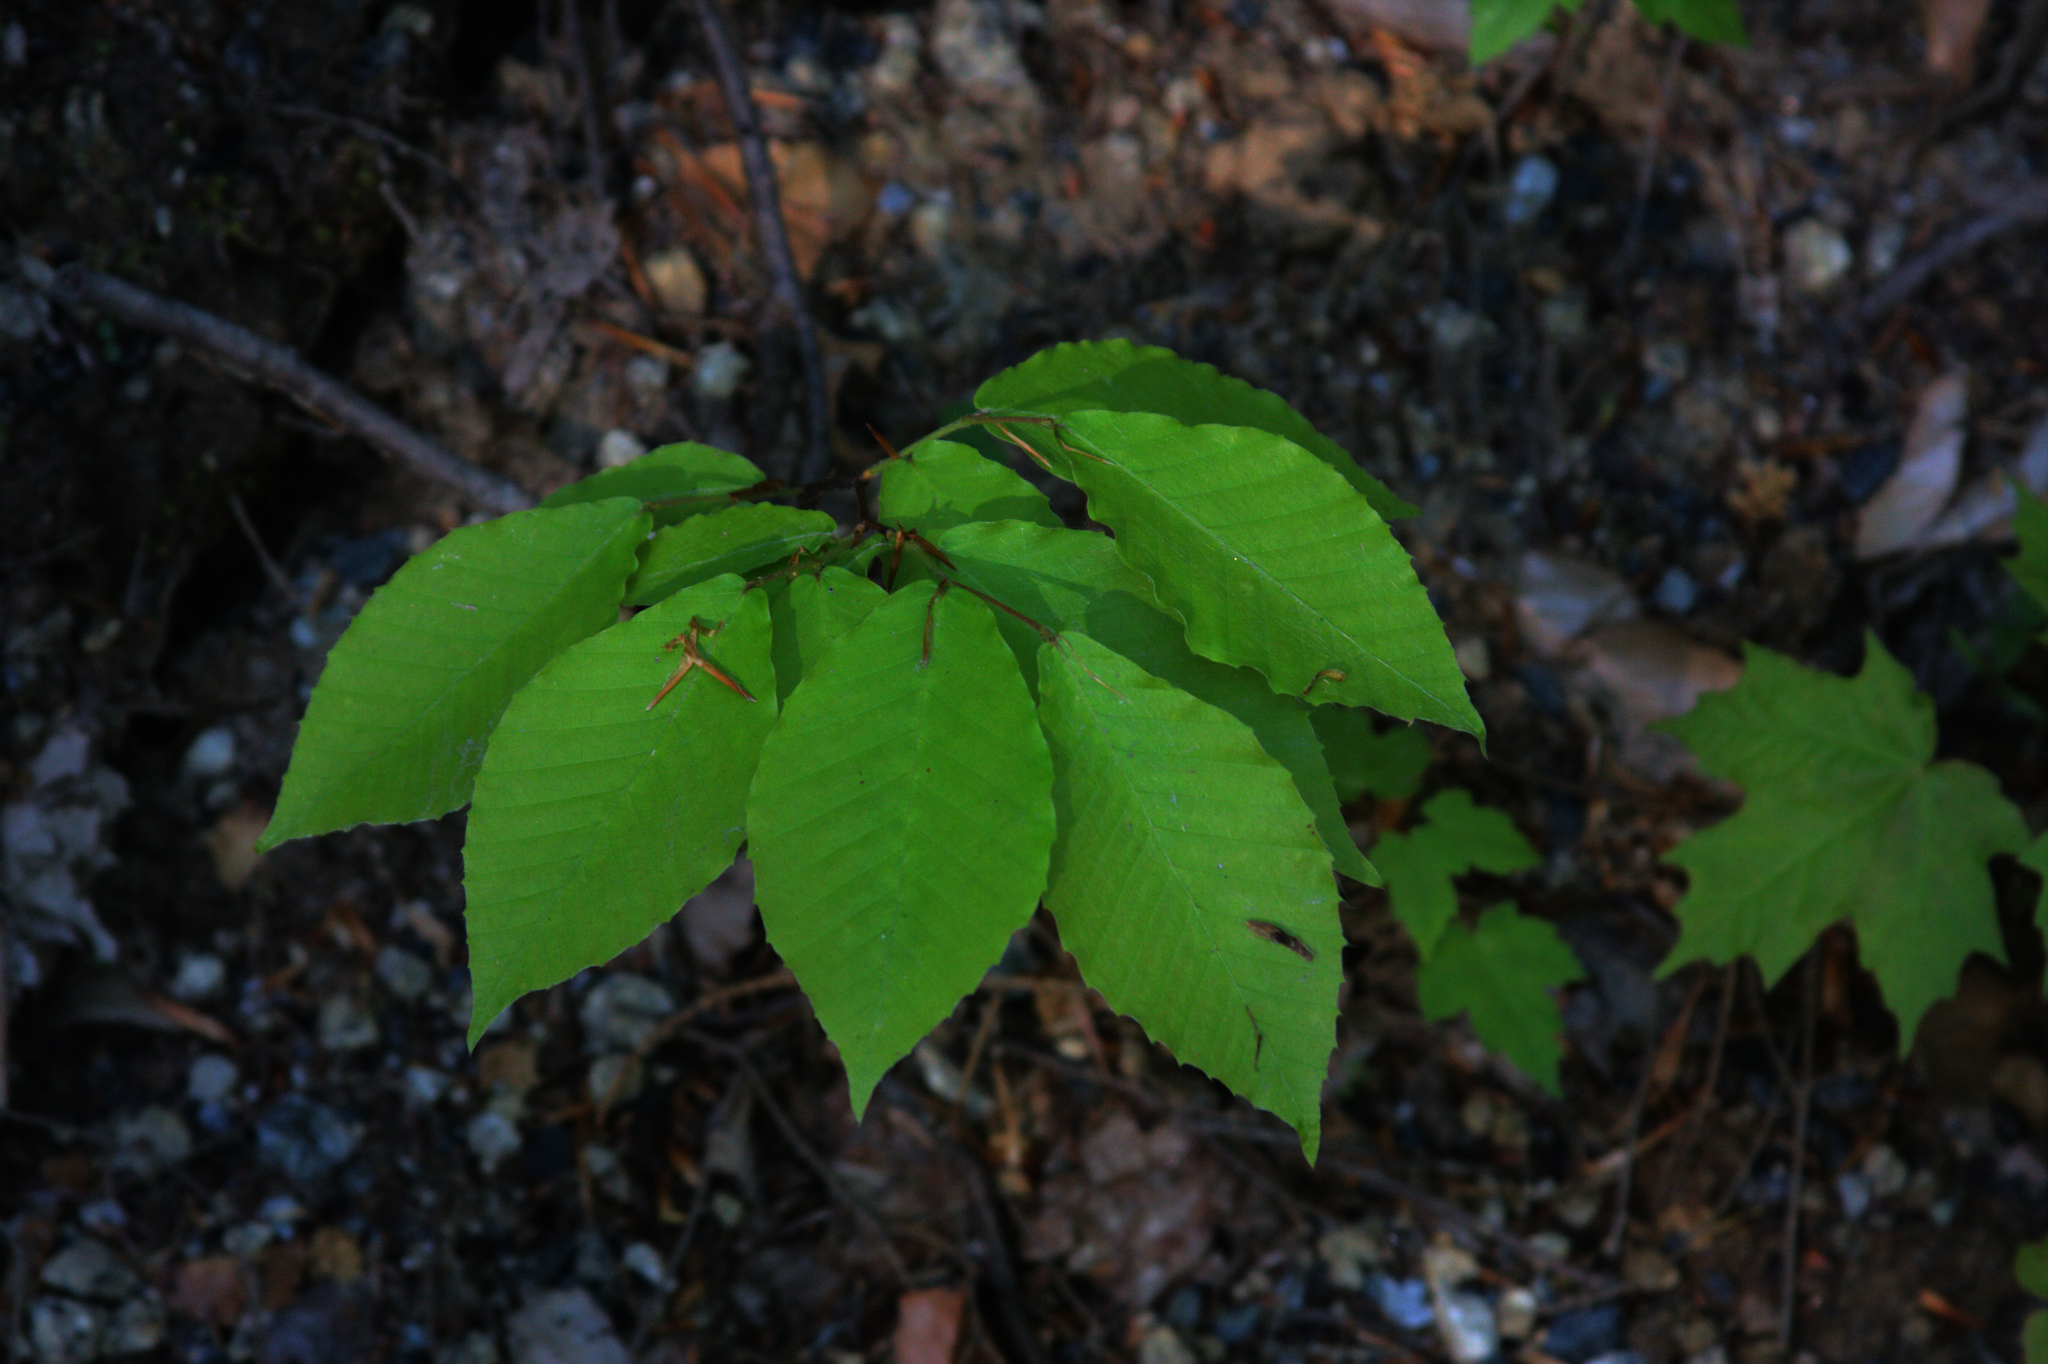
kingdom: Plantae
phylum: Tracheophyta
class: Magnoliopsida
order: Fagales
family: Fagaceae
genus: Fagus
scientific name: Fagus grandifolia
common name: American beech
